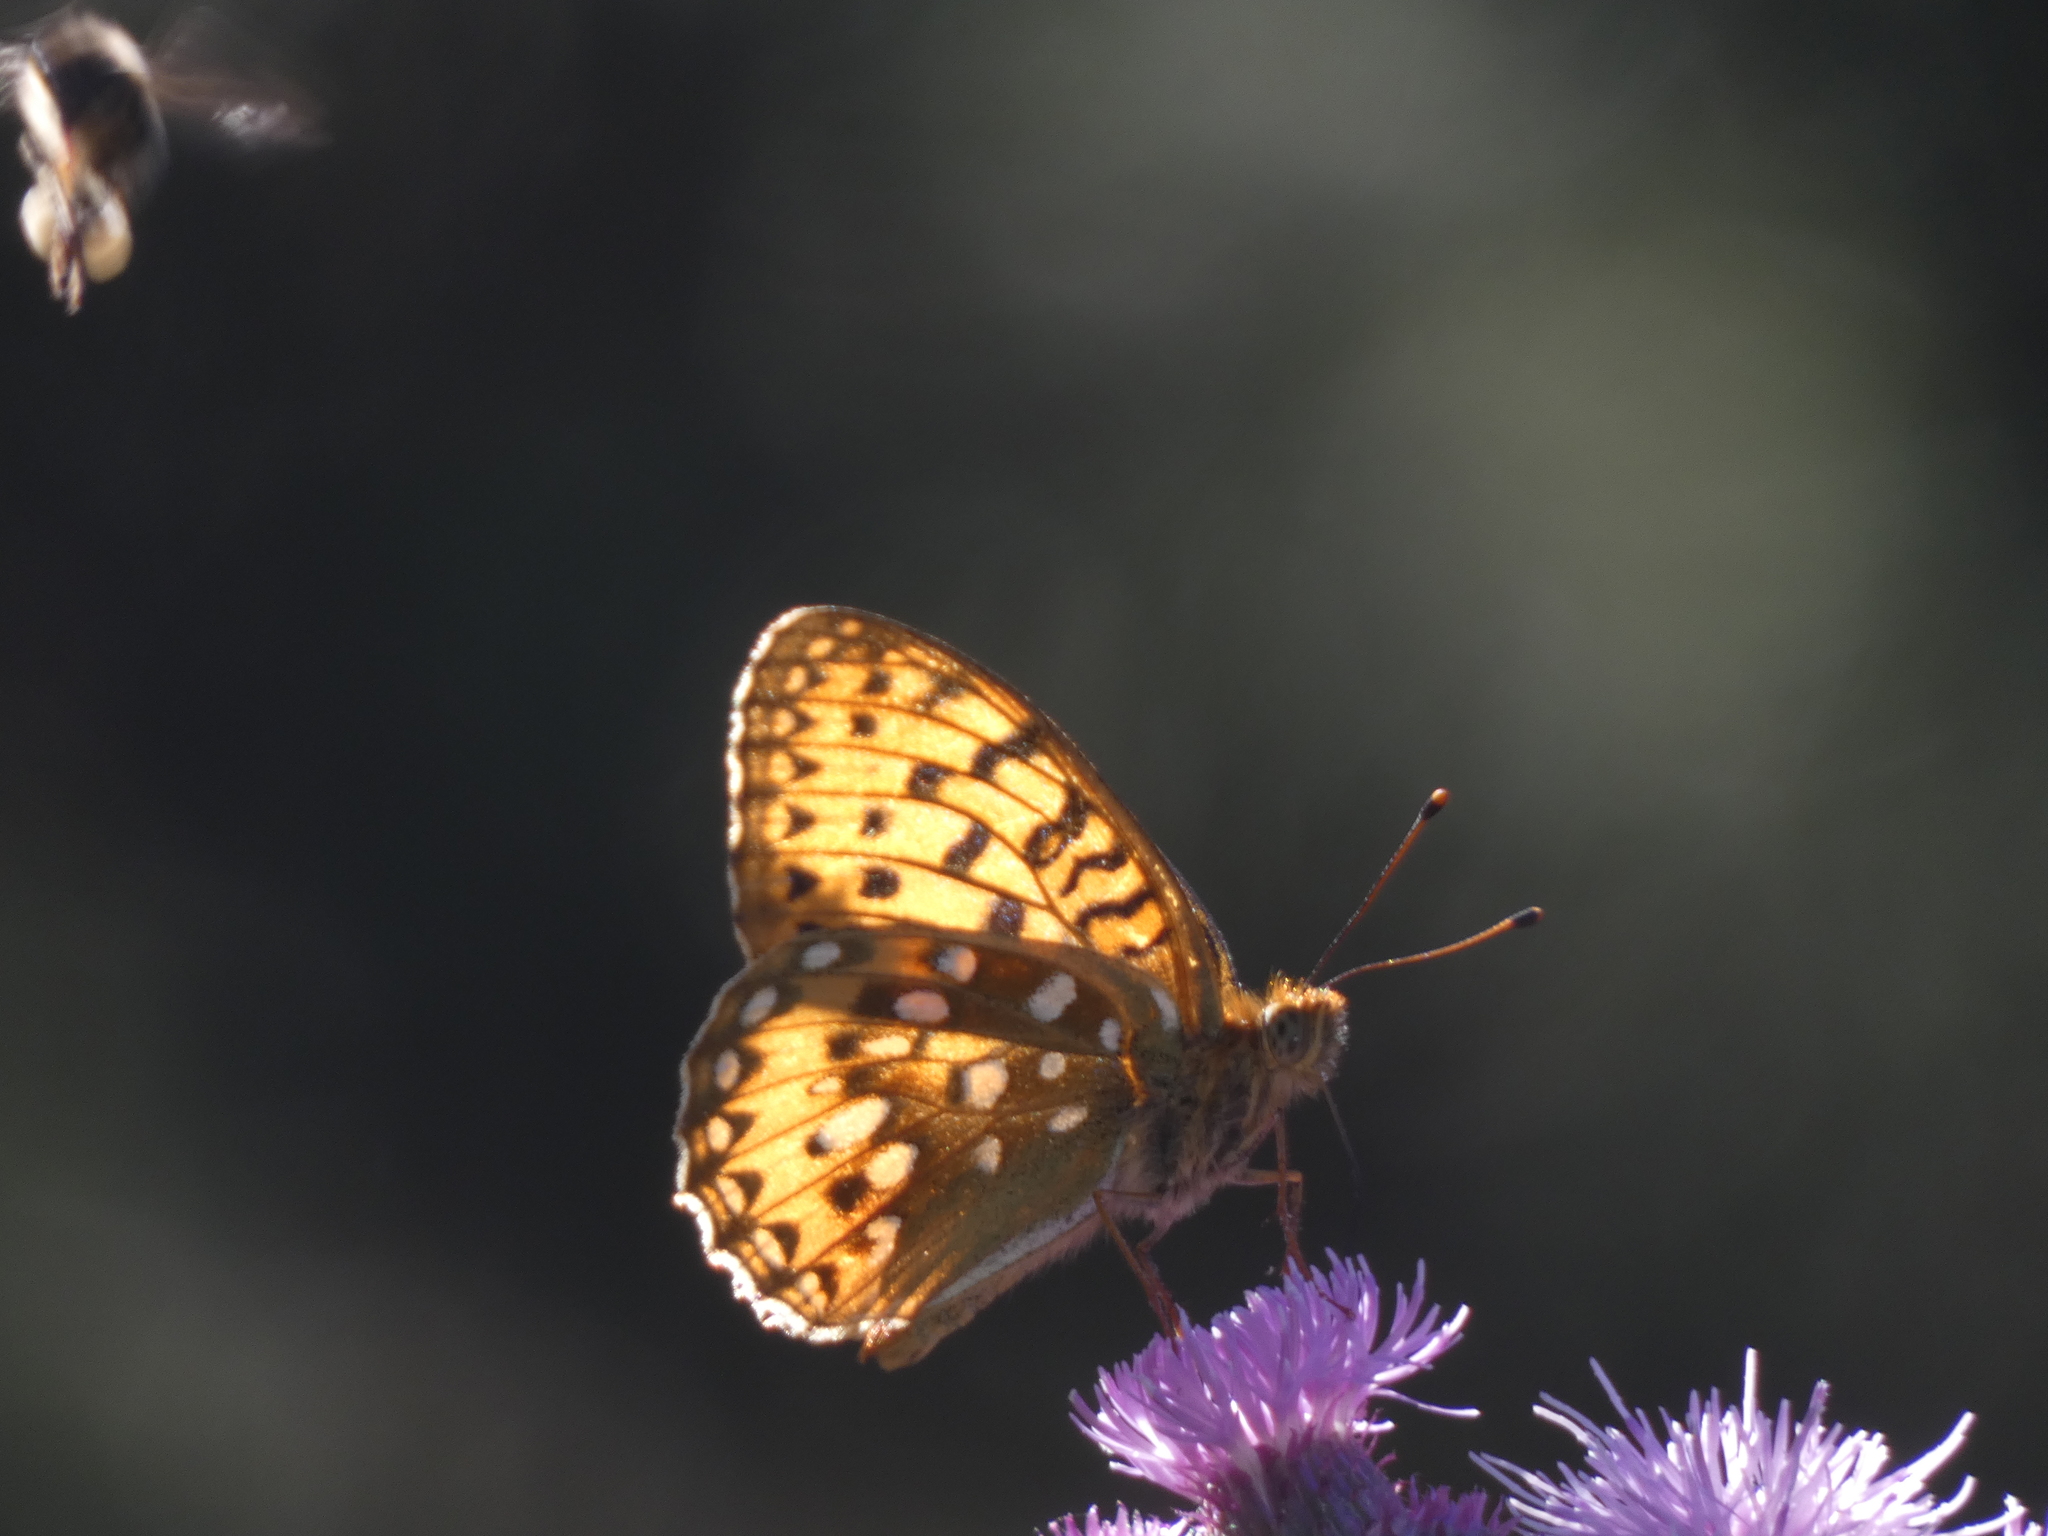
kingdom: Animalia
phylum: Arthropoda
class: Insecta
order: Lepidoptera
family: Nymphalidae
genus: Speyeria
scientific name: Speyeria aglaja
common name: Dark green fritillary
